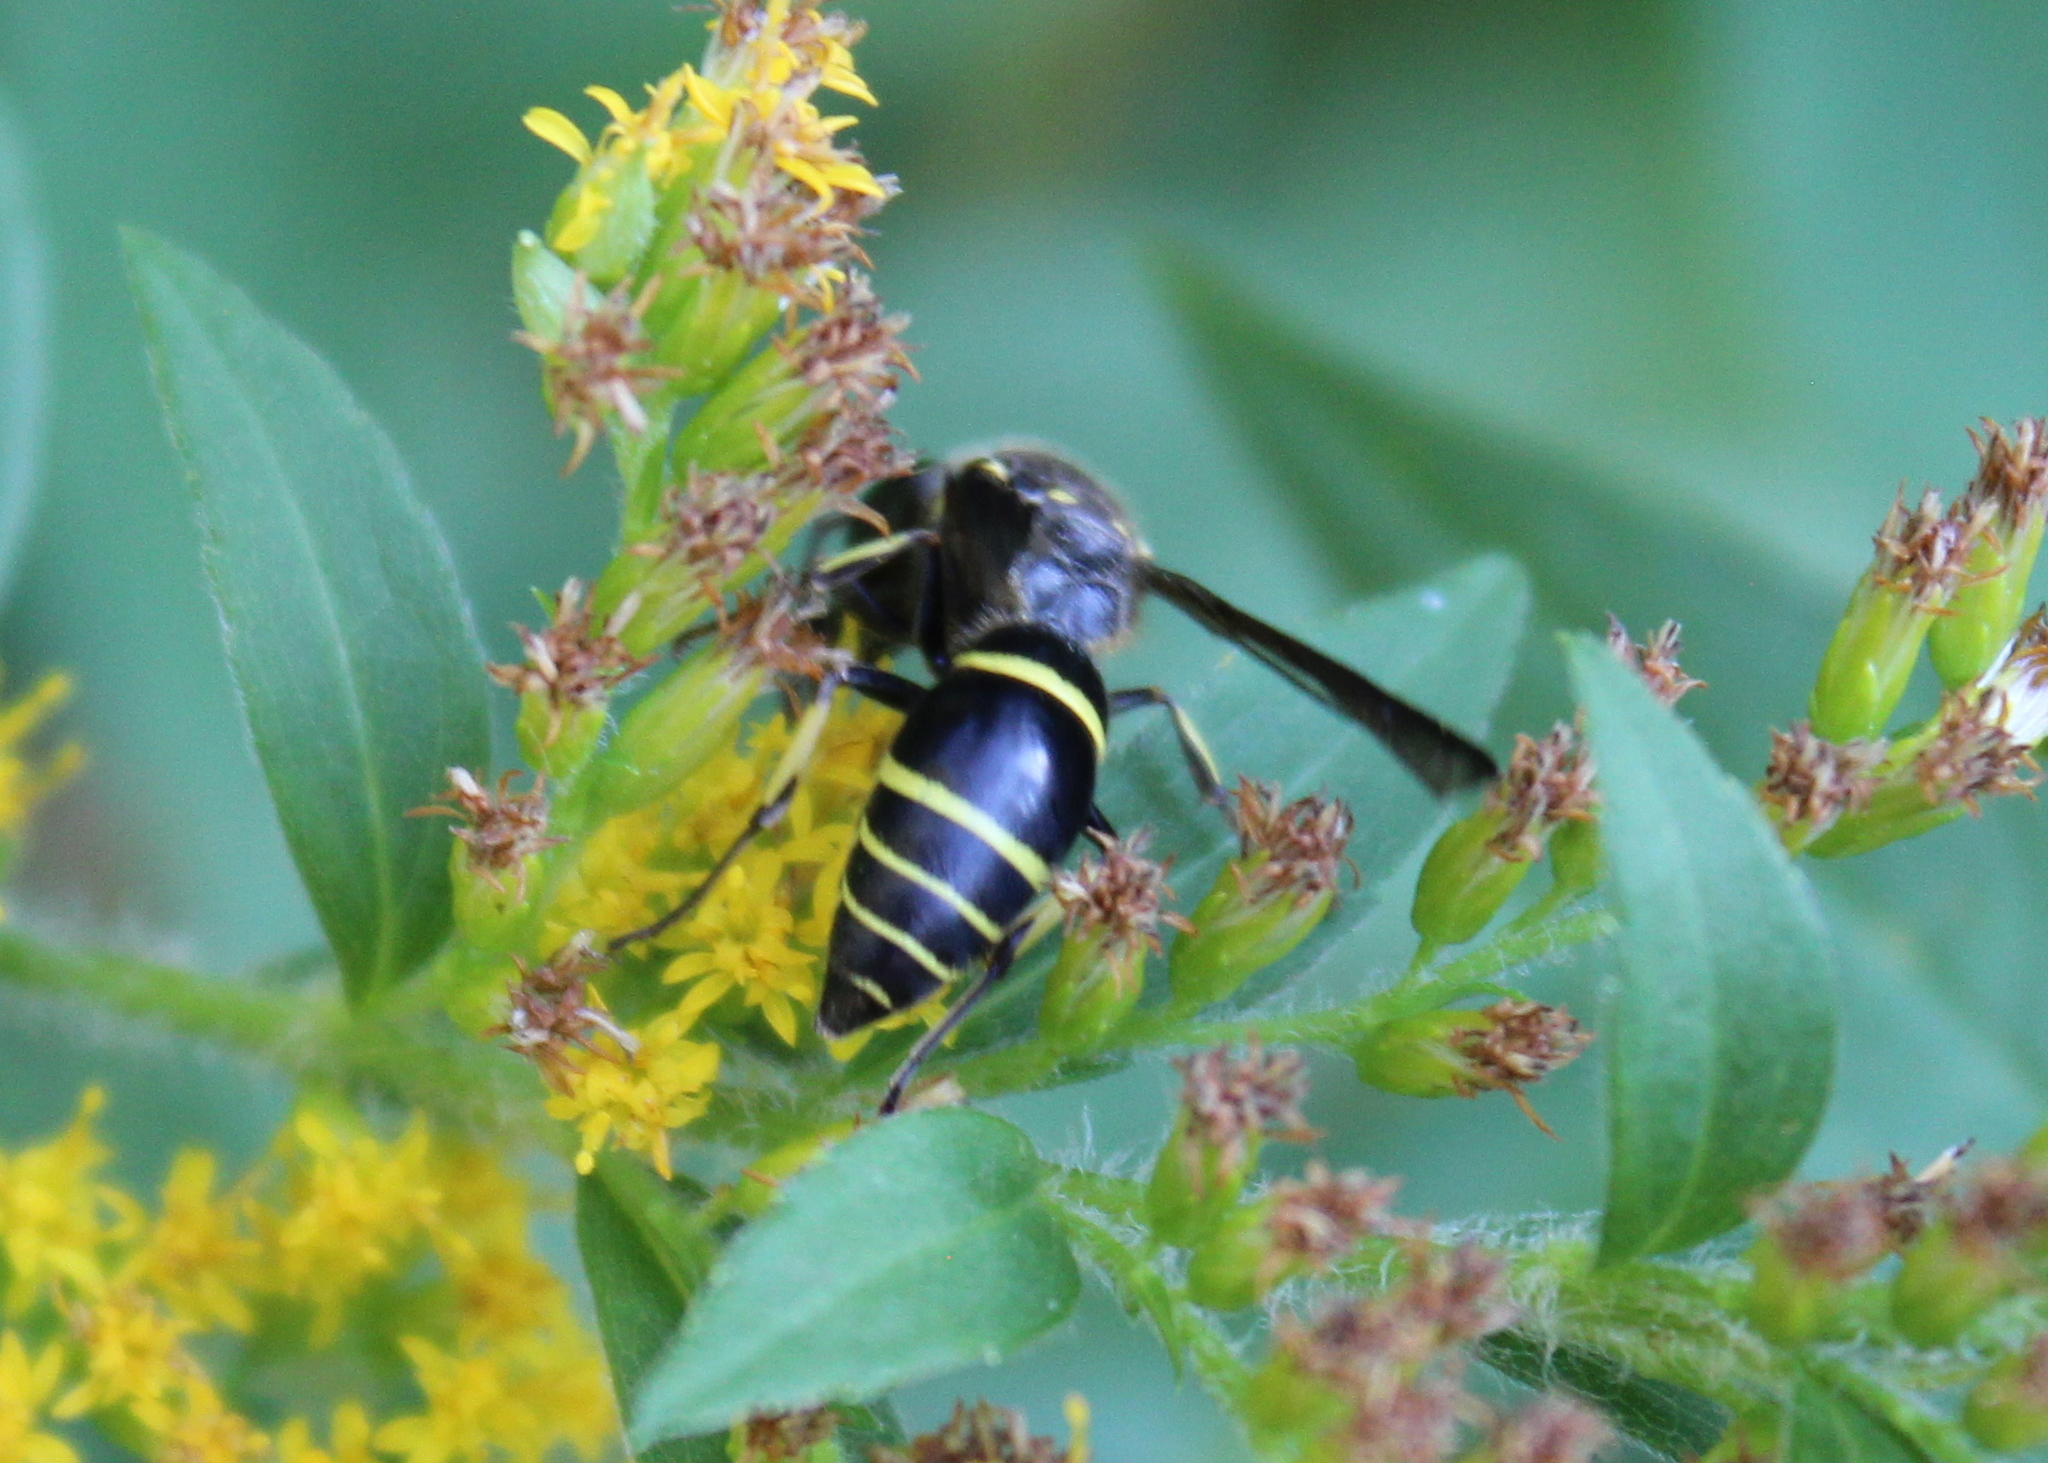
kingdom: Animalia
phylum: Arthropoda
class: Insecta
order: Hymenoptera
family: Vespidae
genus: Ancistrocerus
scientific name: Ancistrocerus
